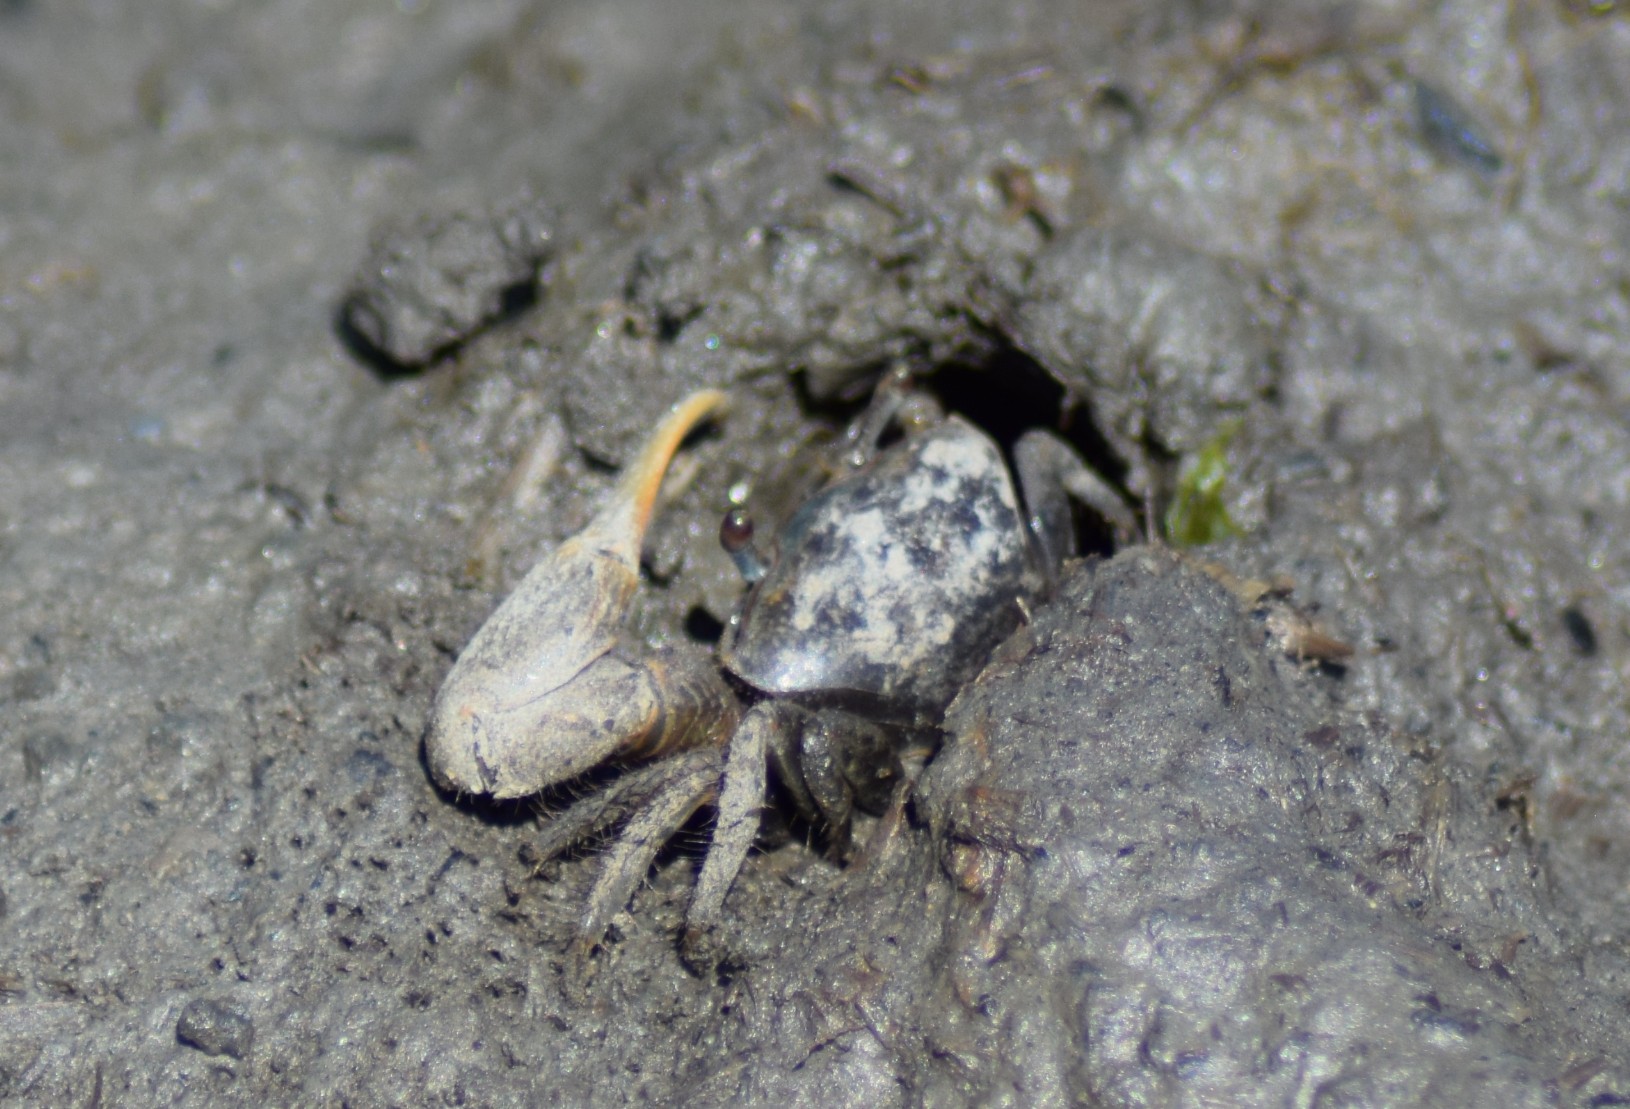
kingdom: Animalia
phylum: Arthropoda
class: Malacostraca
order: Decapoda
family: Ocypodidae
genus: Minuca
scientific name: Minuca pugnax
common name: Mud fiddler crab
